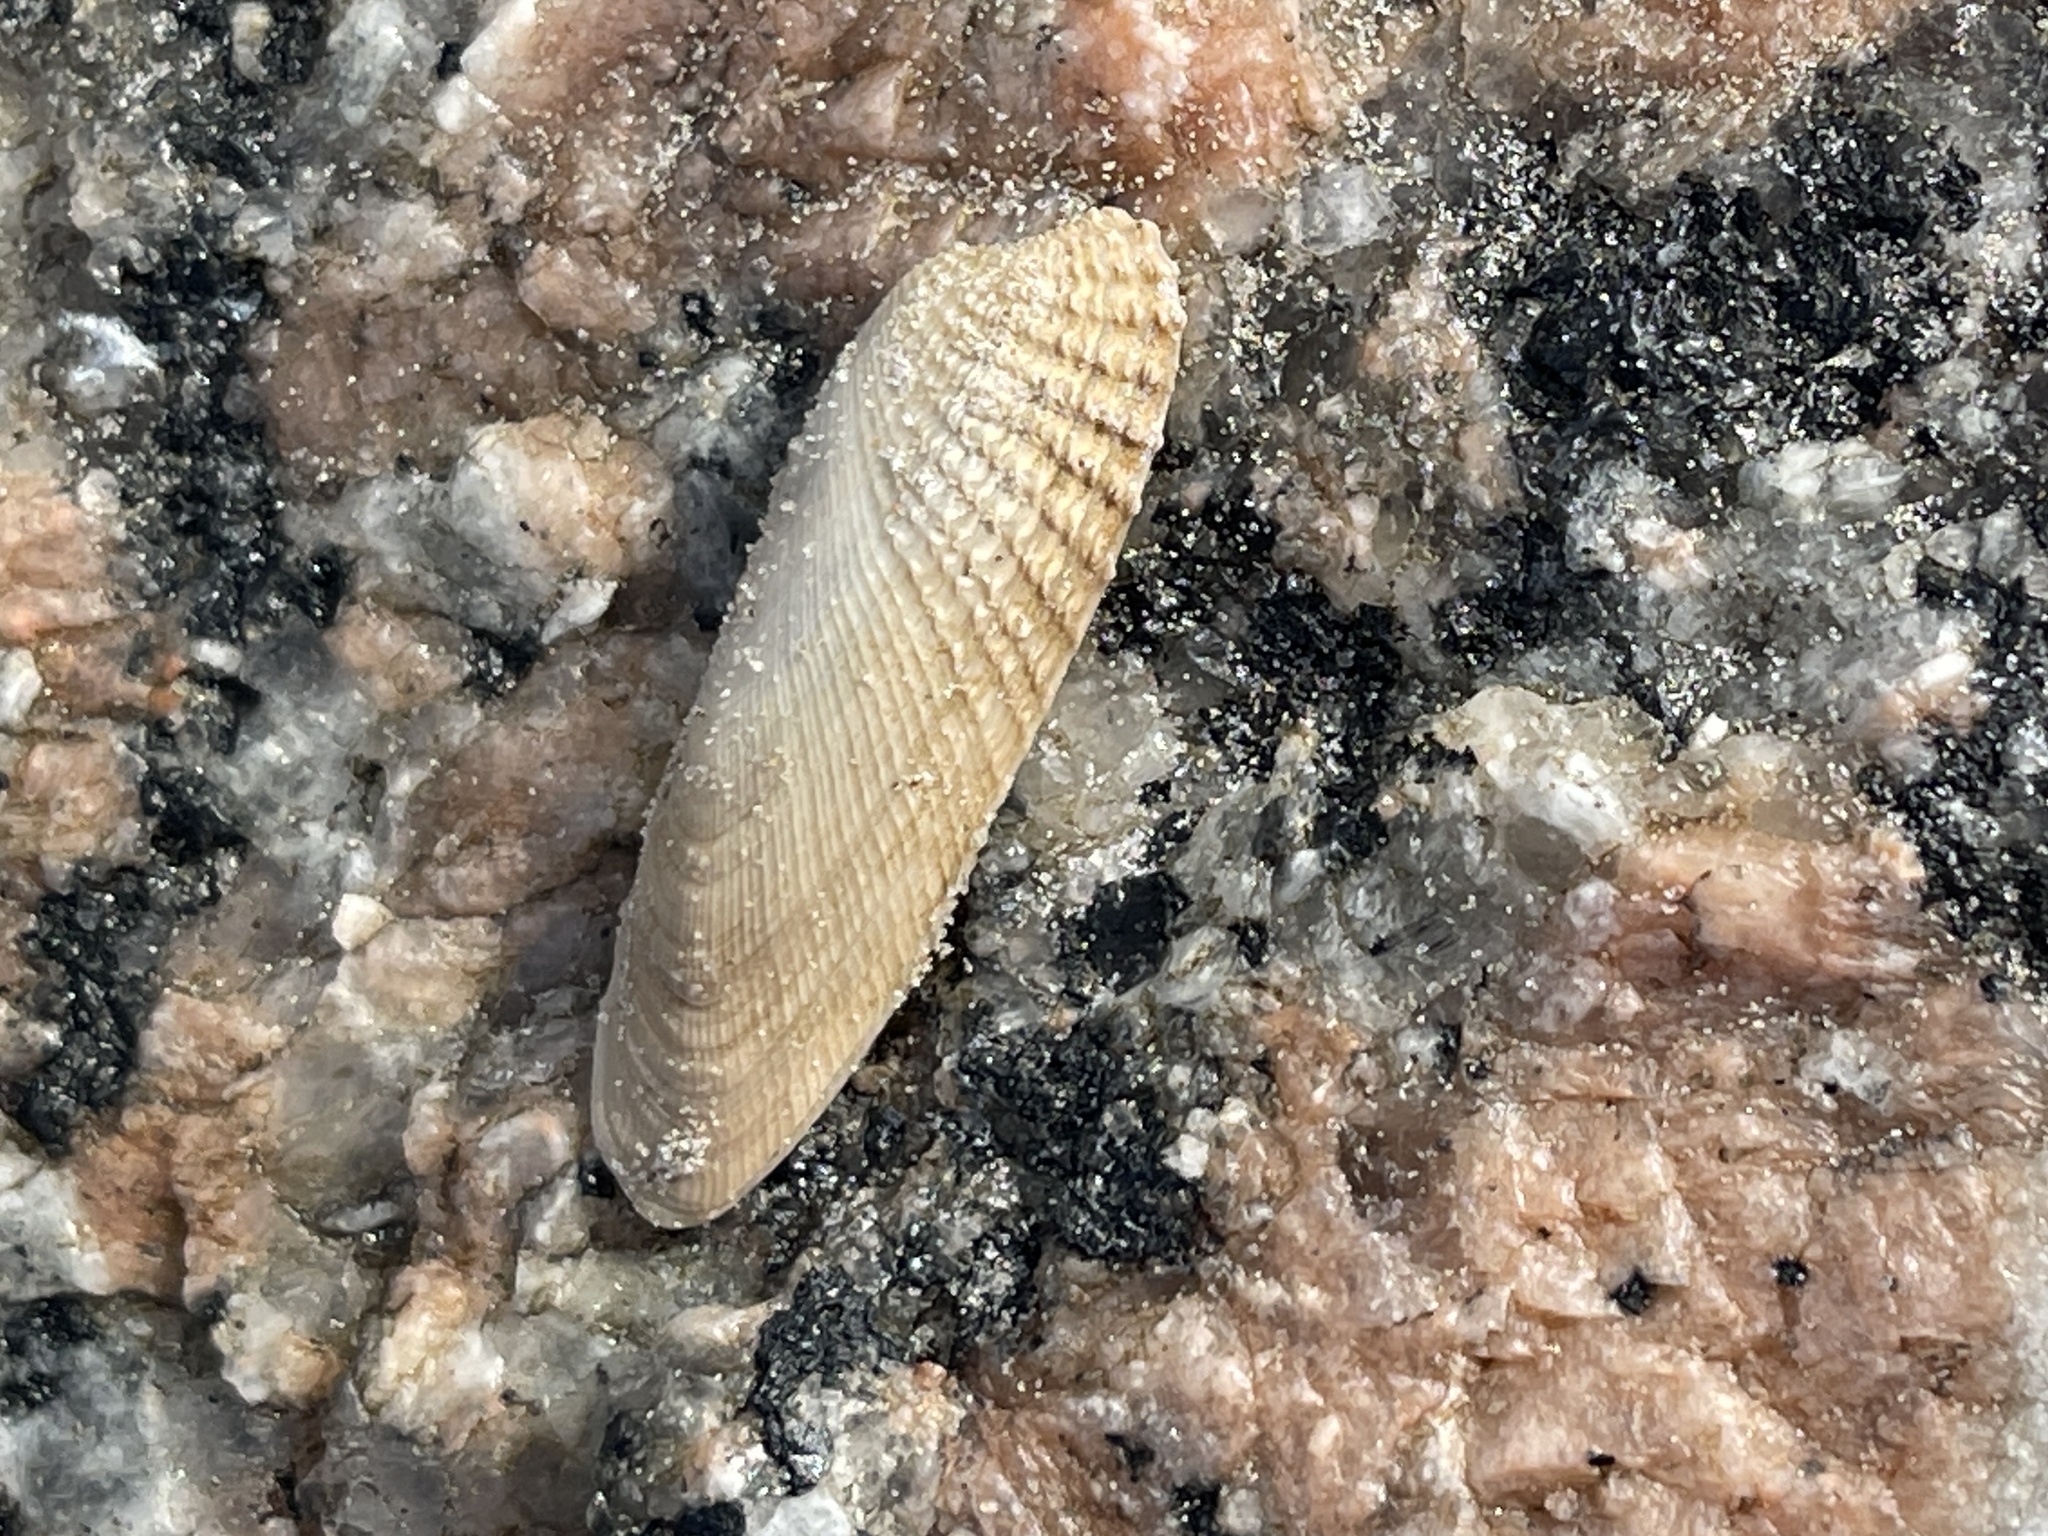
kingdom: Animalia
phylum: Mollusca
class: Bivalvia
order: Venerida
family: Veneridae
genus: Petricolaria
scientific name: Petricolaria pholadiformis
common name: American piddock
